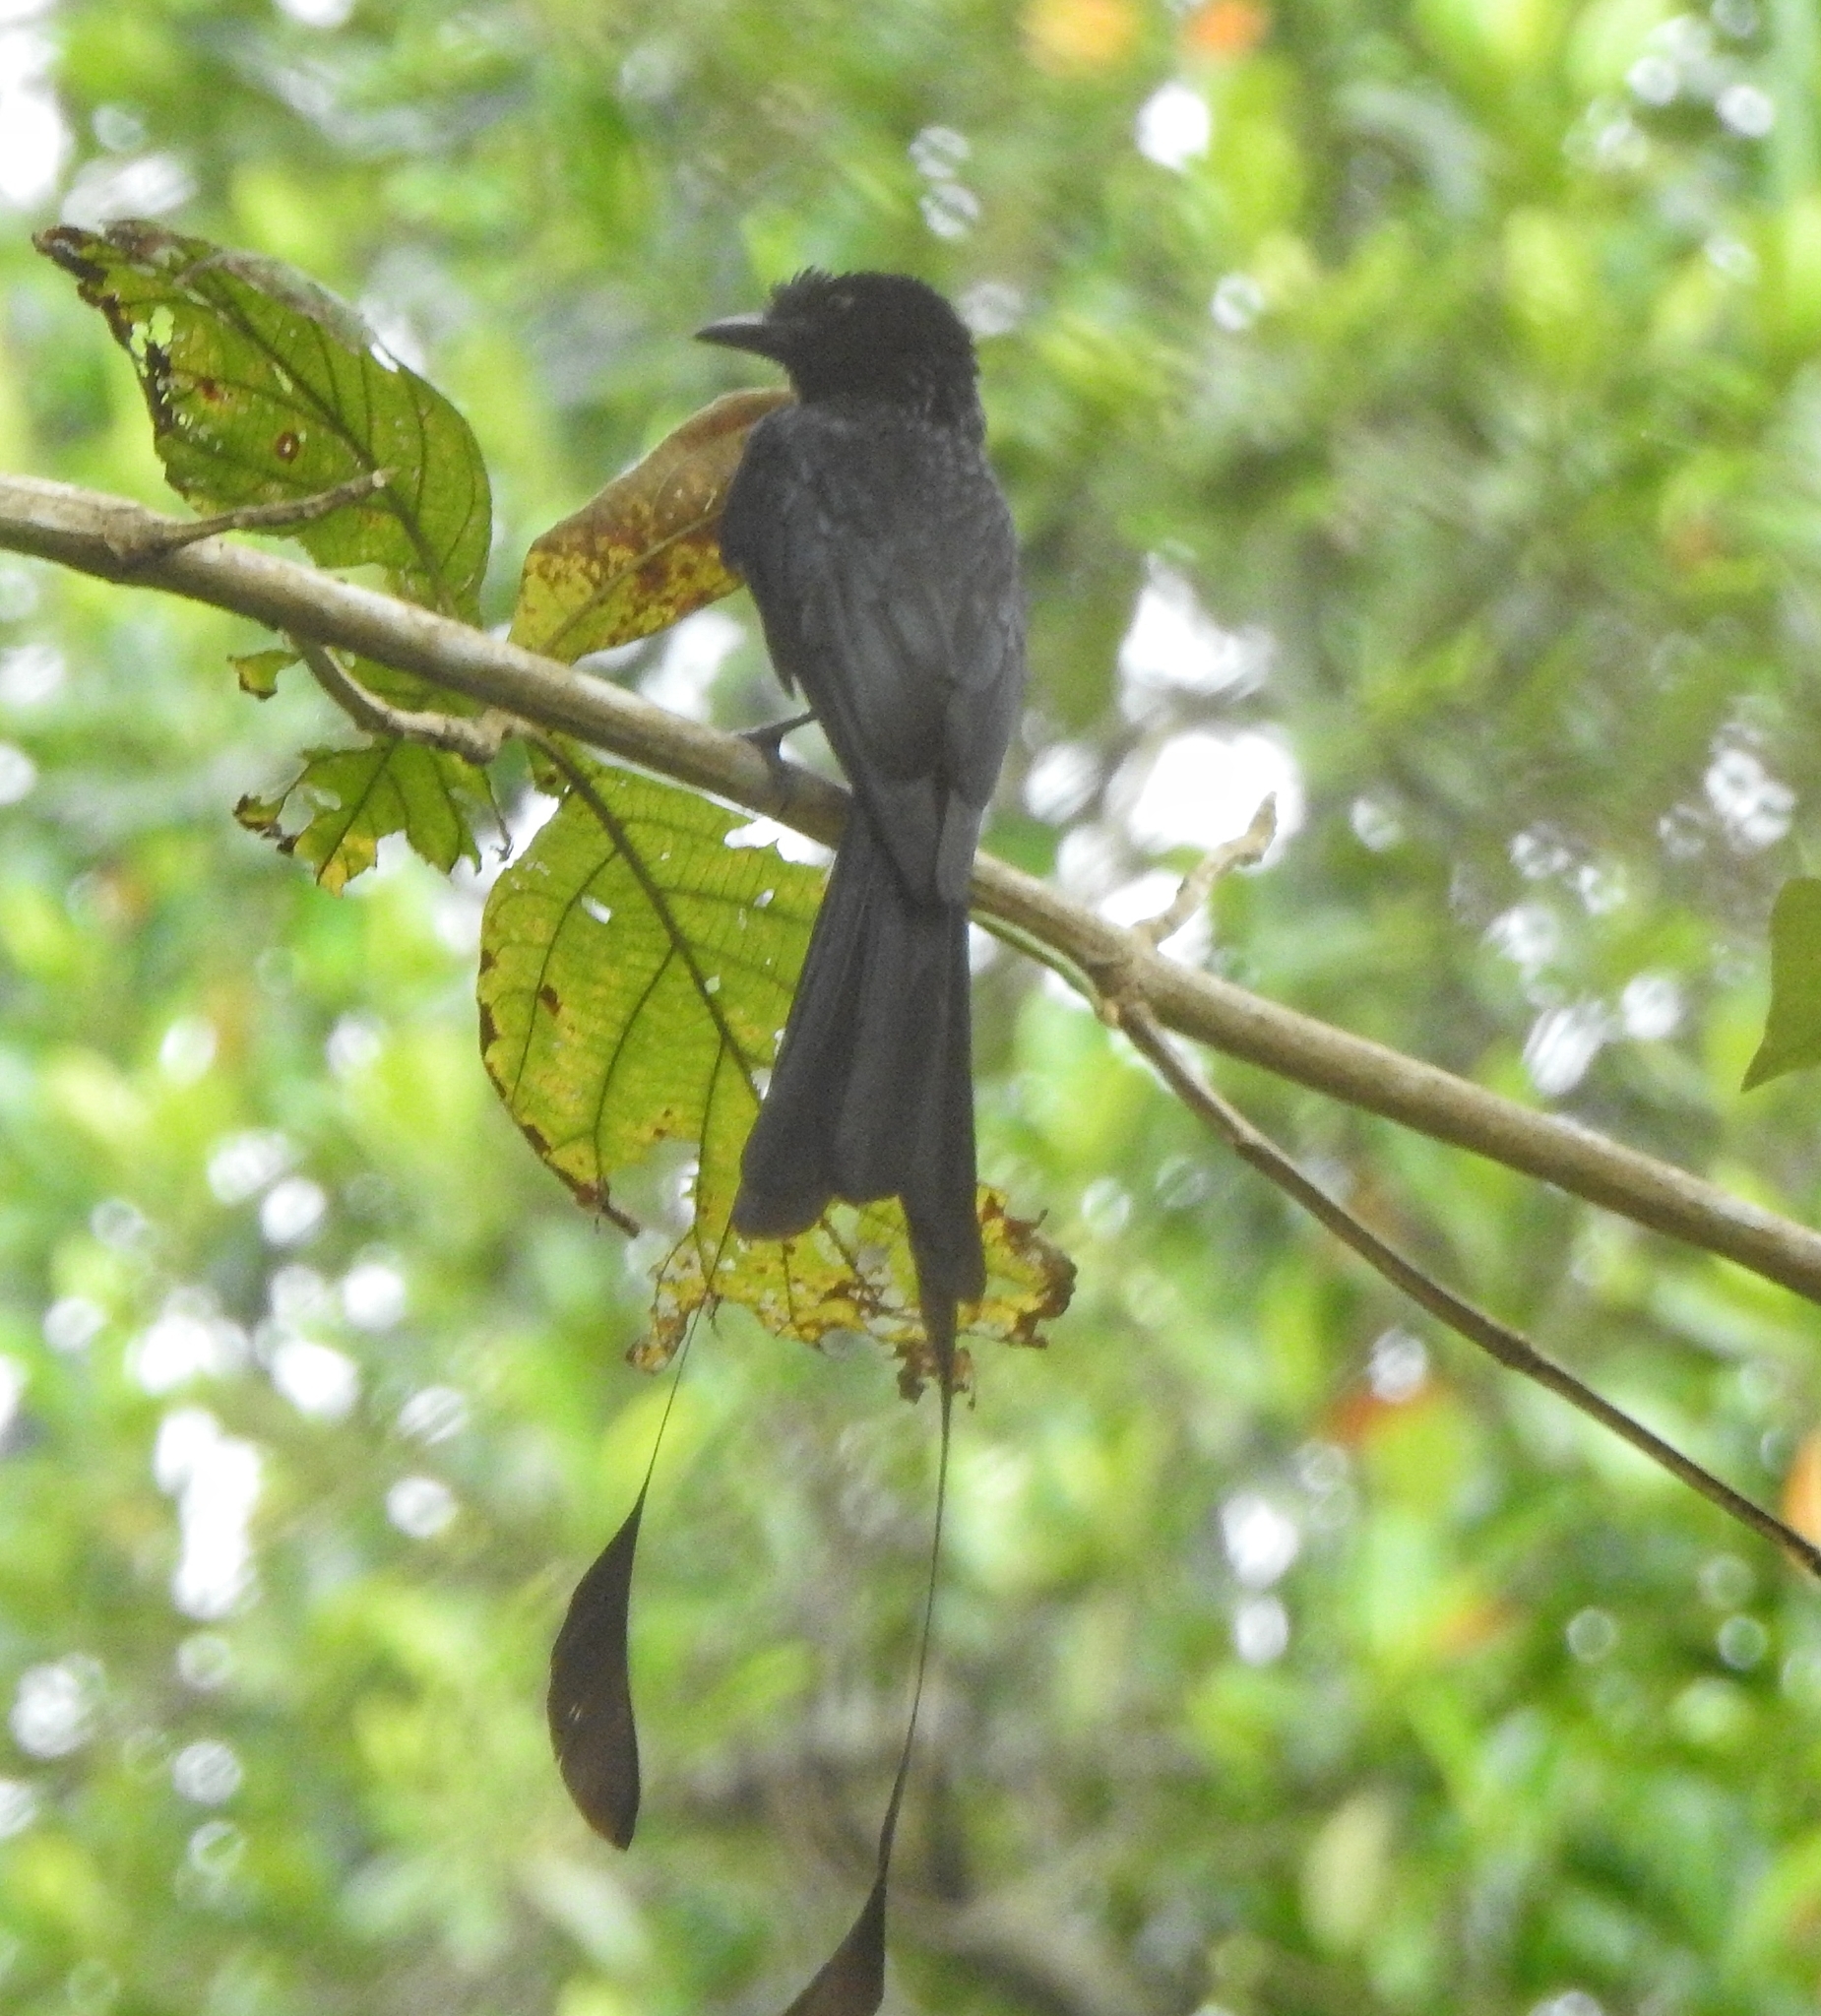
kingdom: Animalia
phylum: Chordata
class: Aves
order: Passeriformes
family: Dicruridae
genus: Dicrurus
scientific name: Dicrurus paradiseus
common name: Greater racket-tailed drongo
